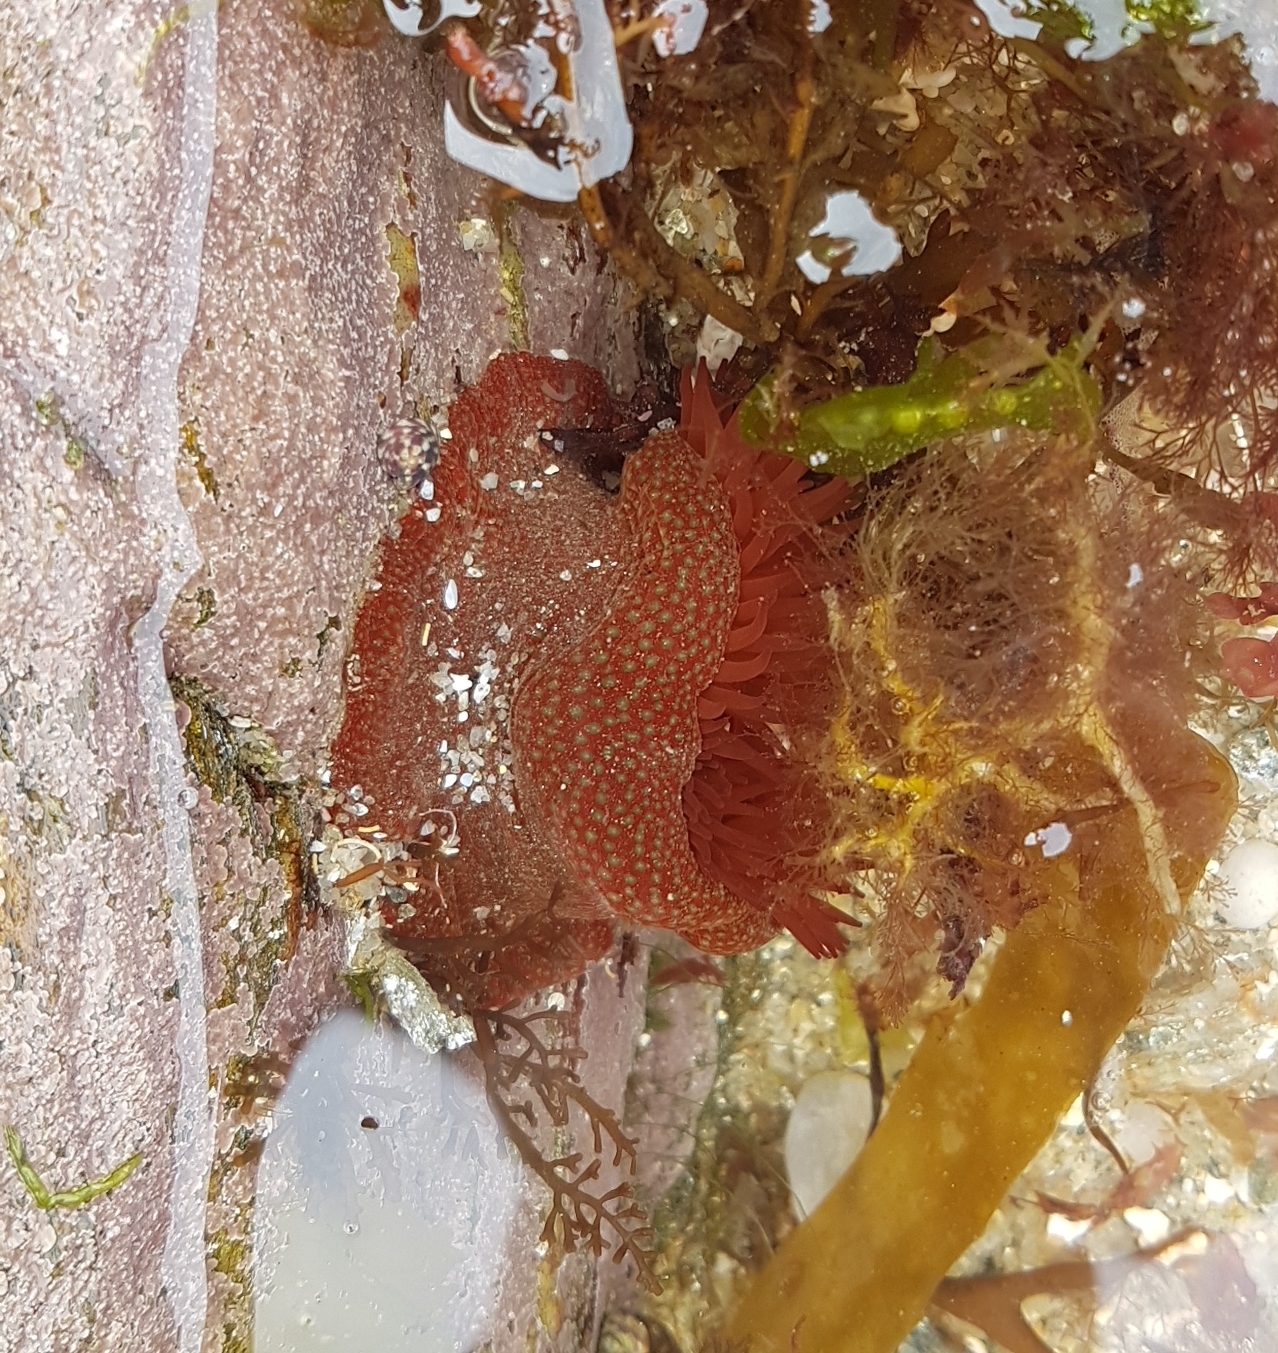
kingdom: Animalia
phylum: Cnidaria
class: Anthozoa
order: Actiniaria
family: Actiniidae
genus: Actinia
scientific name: Actinia fragacea
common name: Strawberry anemone
